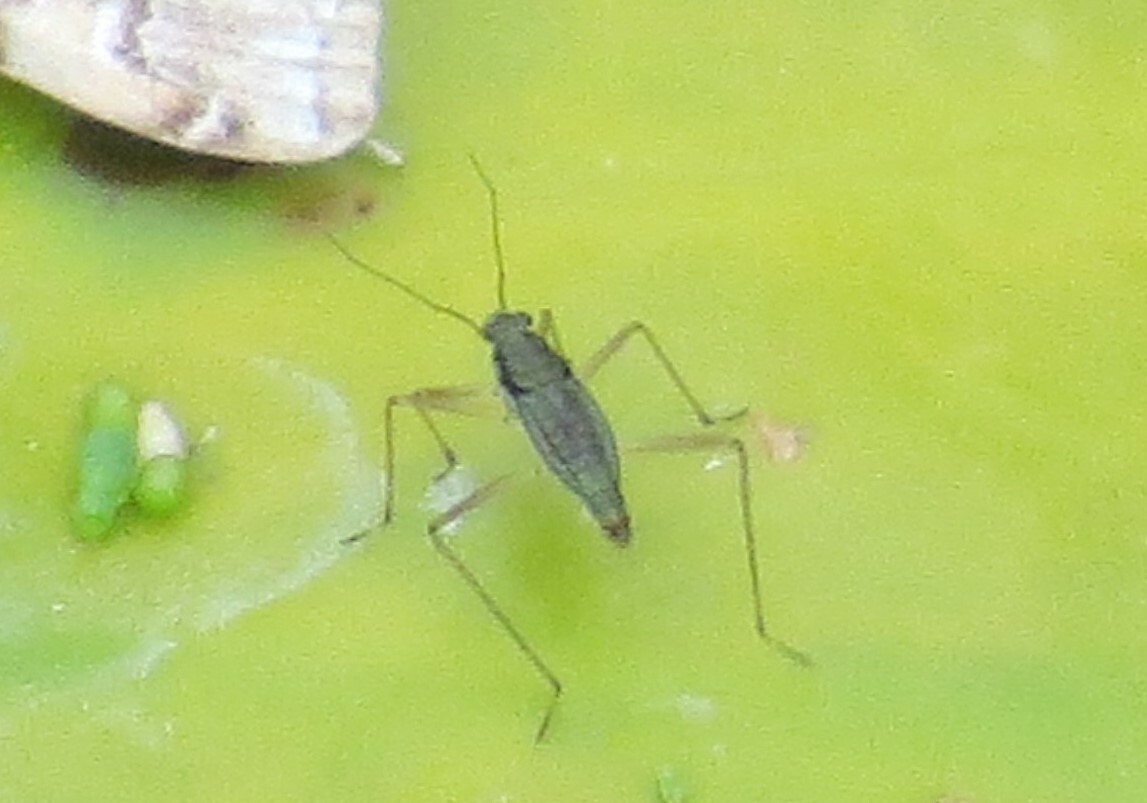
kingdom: Animalia
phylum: Arthropoda
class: Insecta
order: Hemiptera
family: Mesoveliidae
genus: Mesovelia
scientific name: Mesovelia mulsanti
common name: Water treaders
